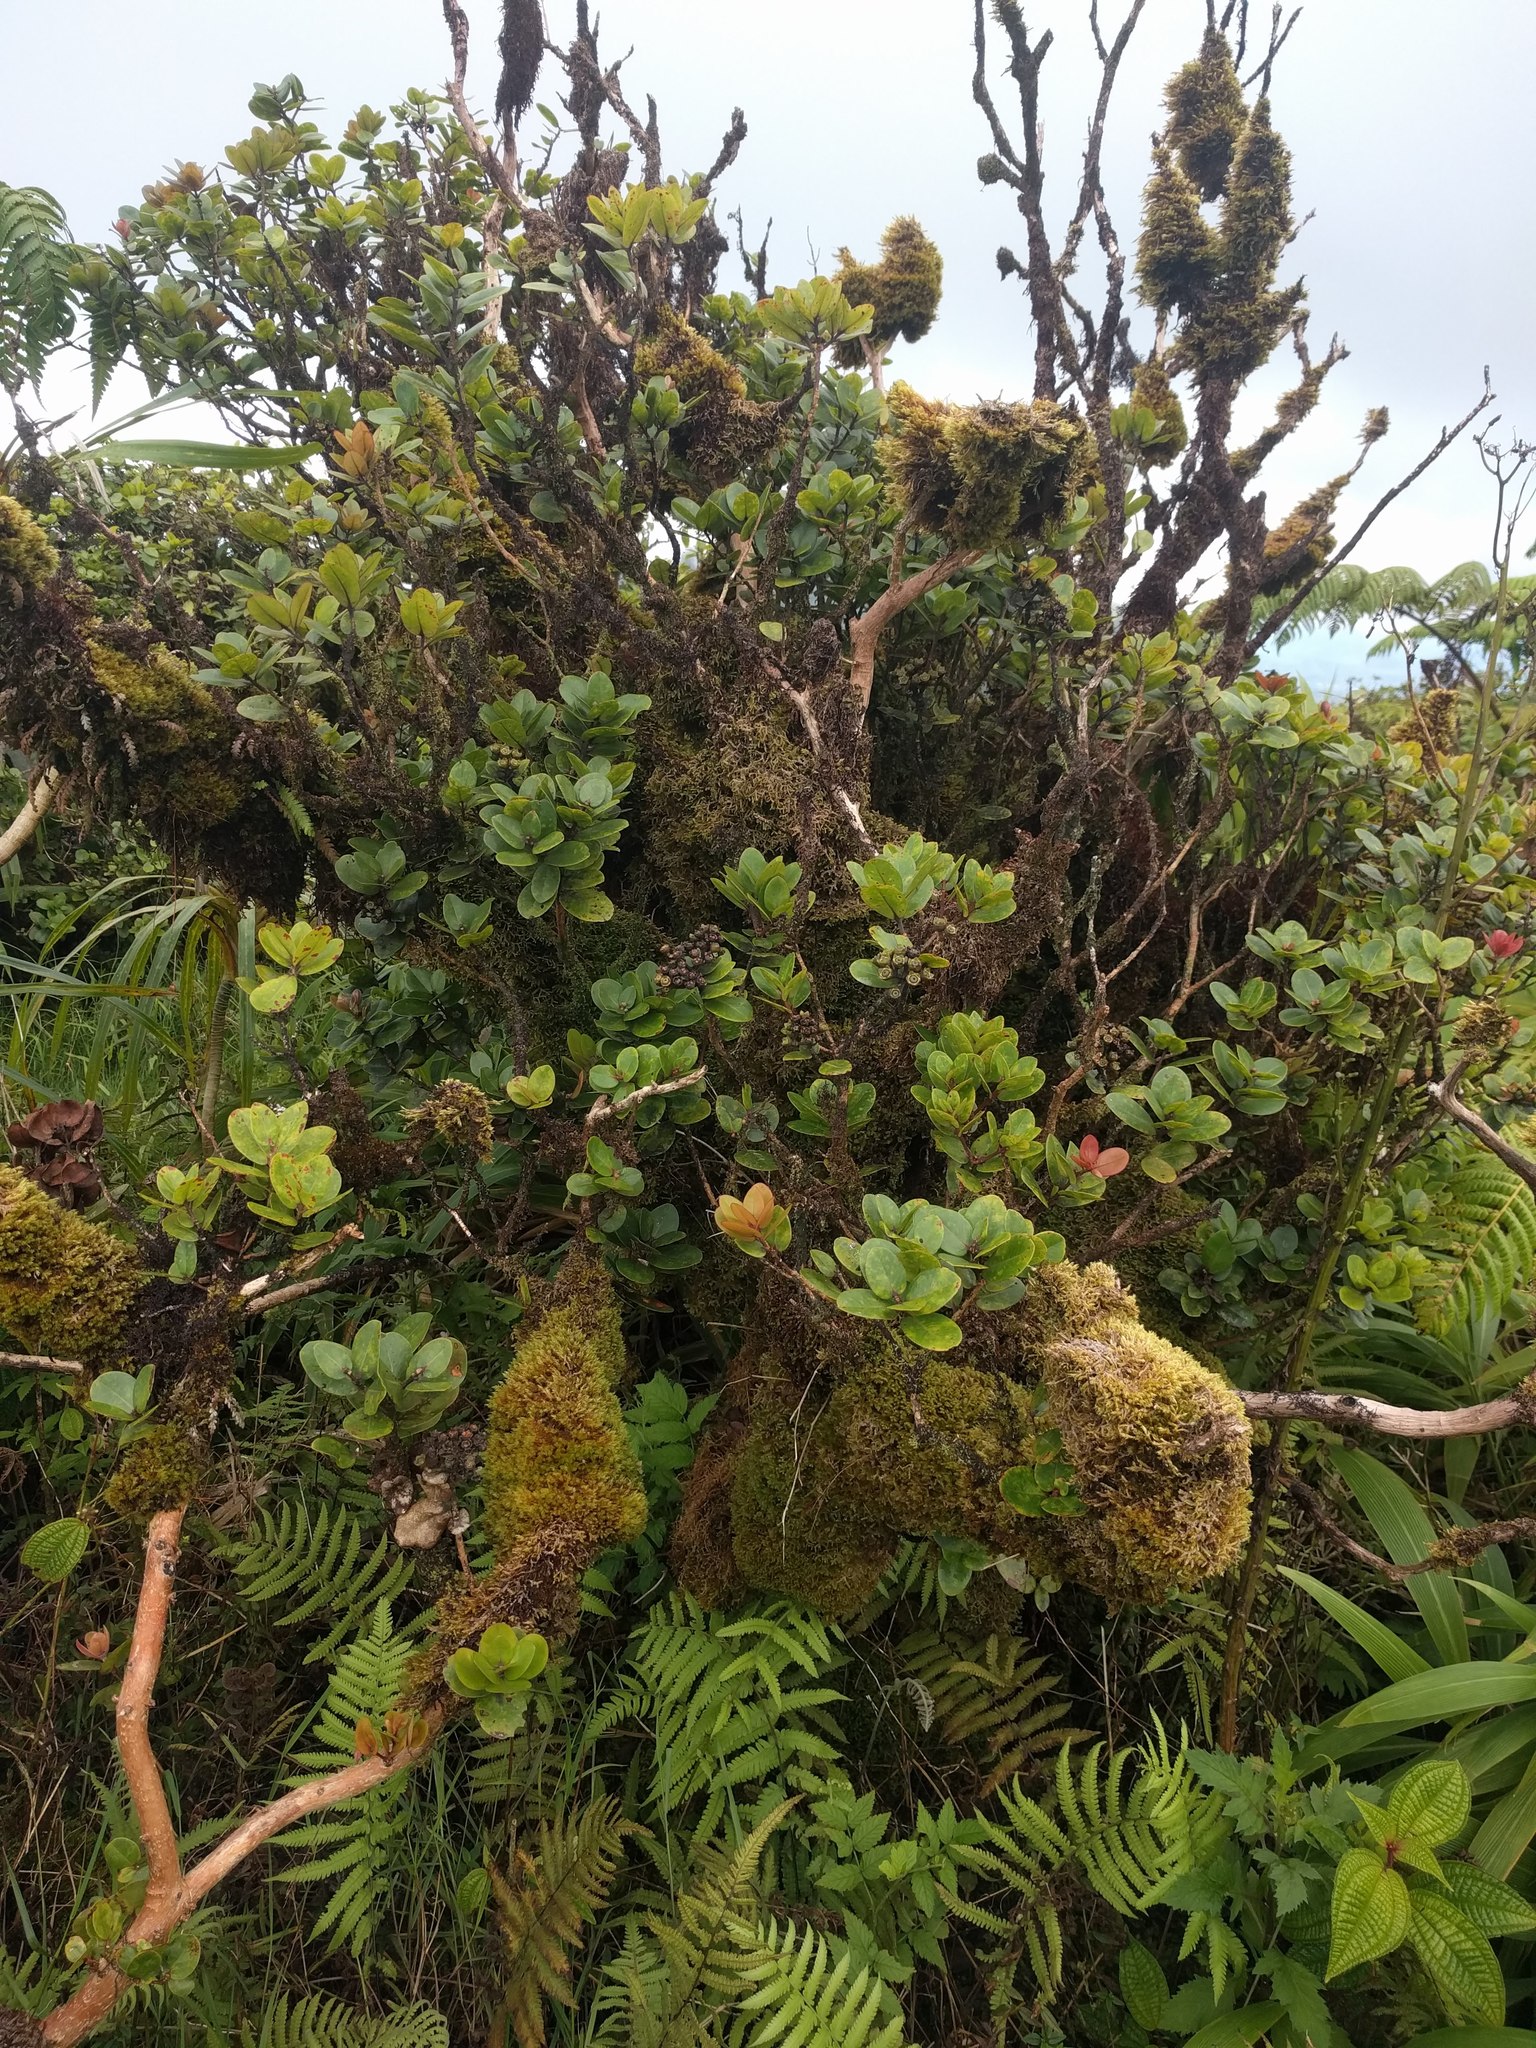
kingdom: Plantae
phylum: Tracheophyta
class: Magnoliopsida
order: Myrtales
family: Myrtaceae
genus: Metrosideros
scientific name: Metrosideros polymorpha
